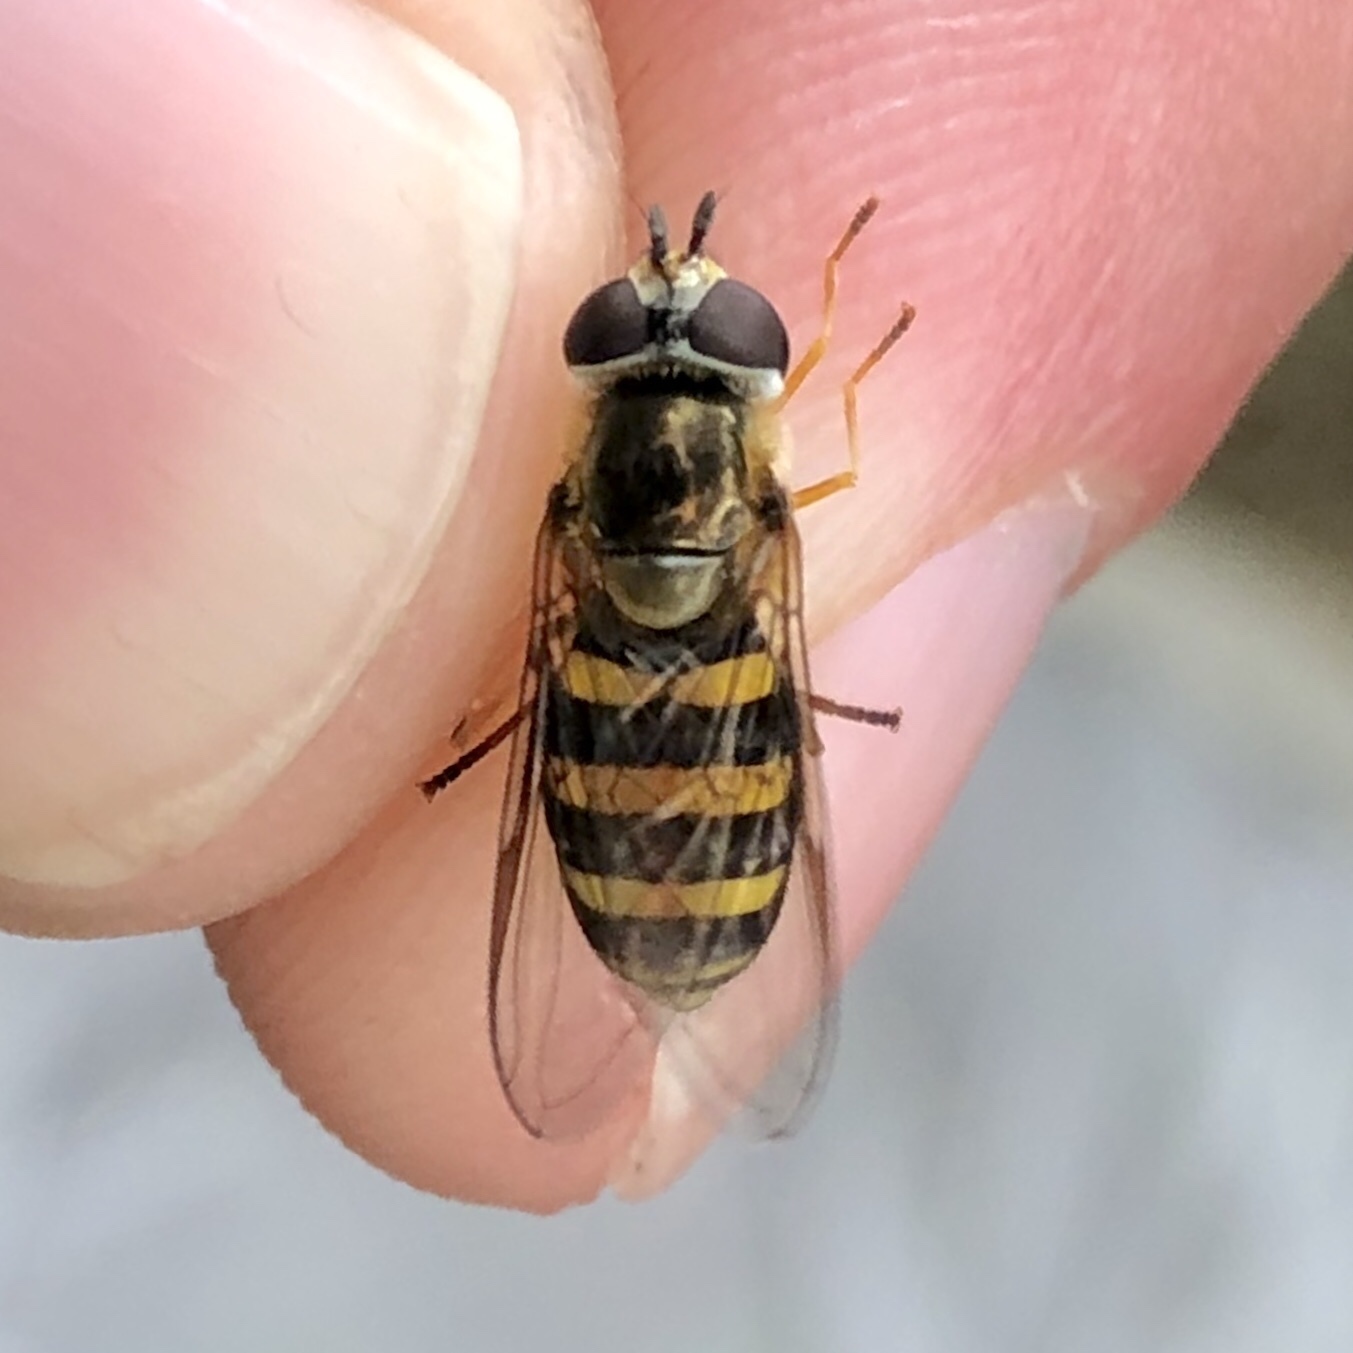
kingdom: Animalia
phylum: Arthropoda
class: Insecta
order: Diptera
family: Syrphidae
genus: Eupeodes
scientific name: Eupeodes
